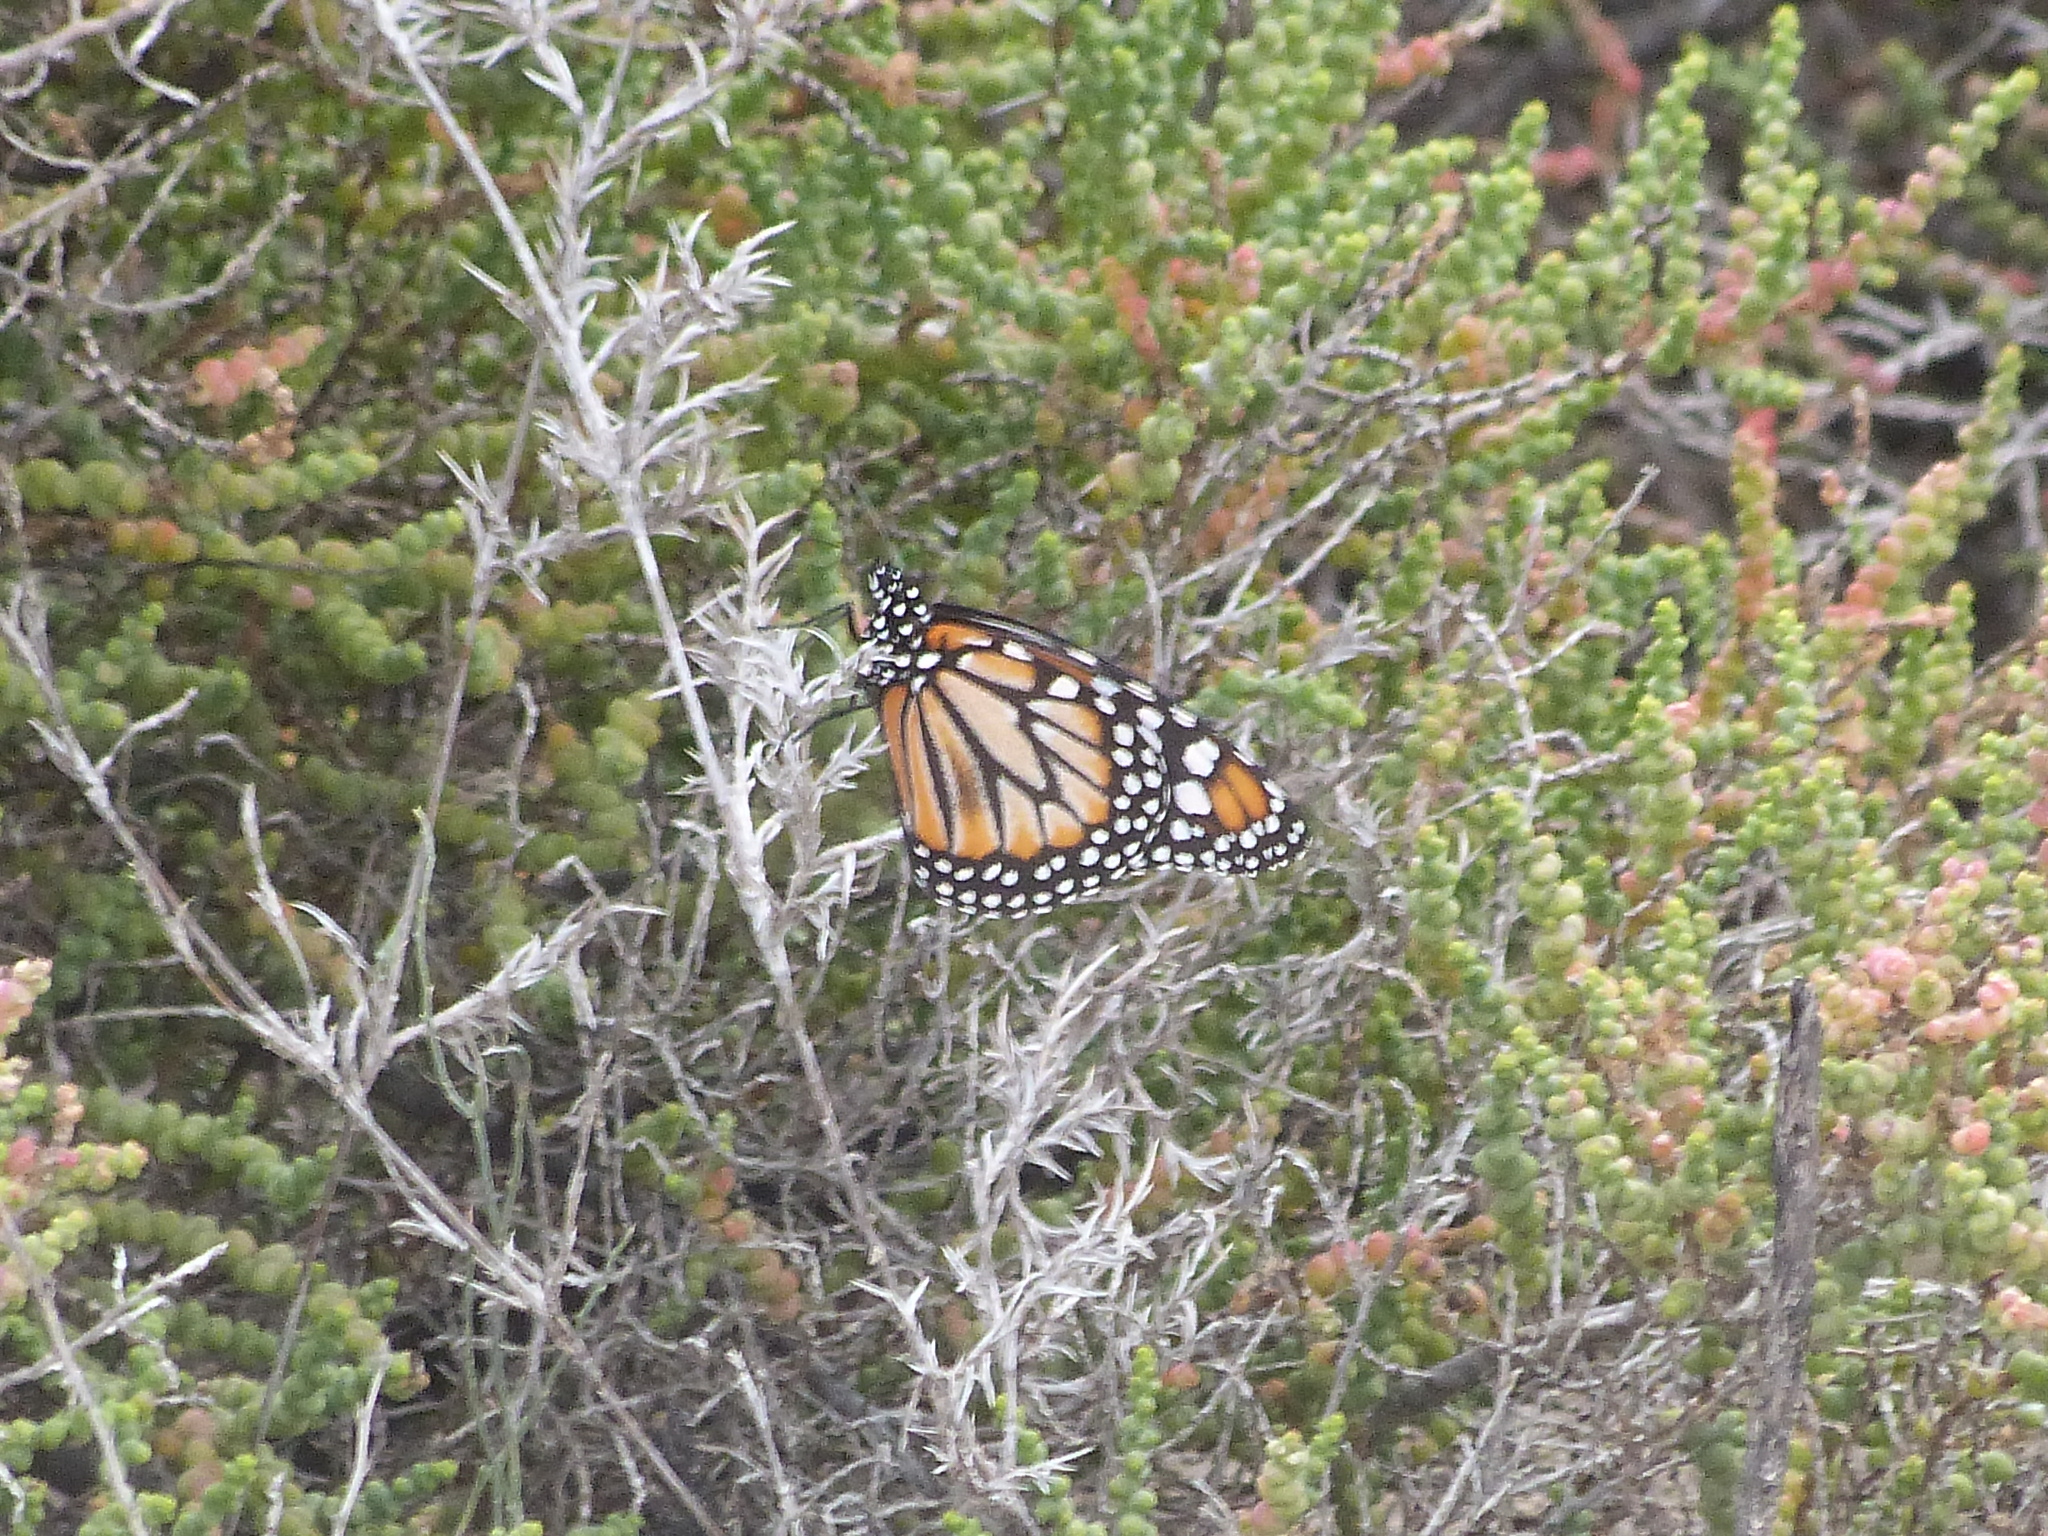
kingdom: Animalia
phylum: Arthropoda
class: Insecta
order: Lepidoptera
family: Nymphalidae
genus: Danaus
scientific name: Danaus erippus
